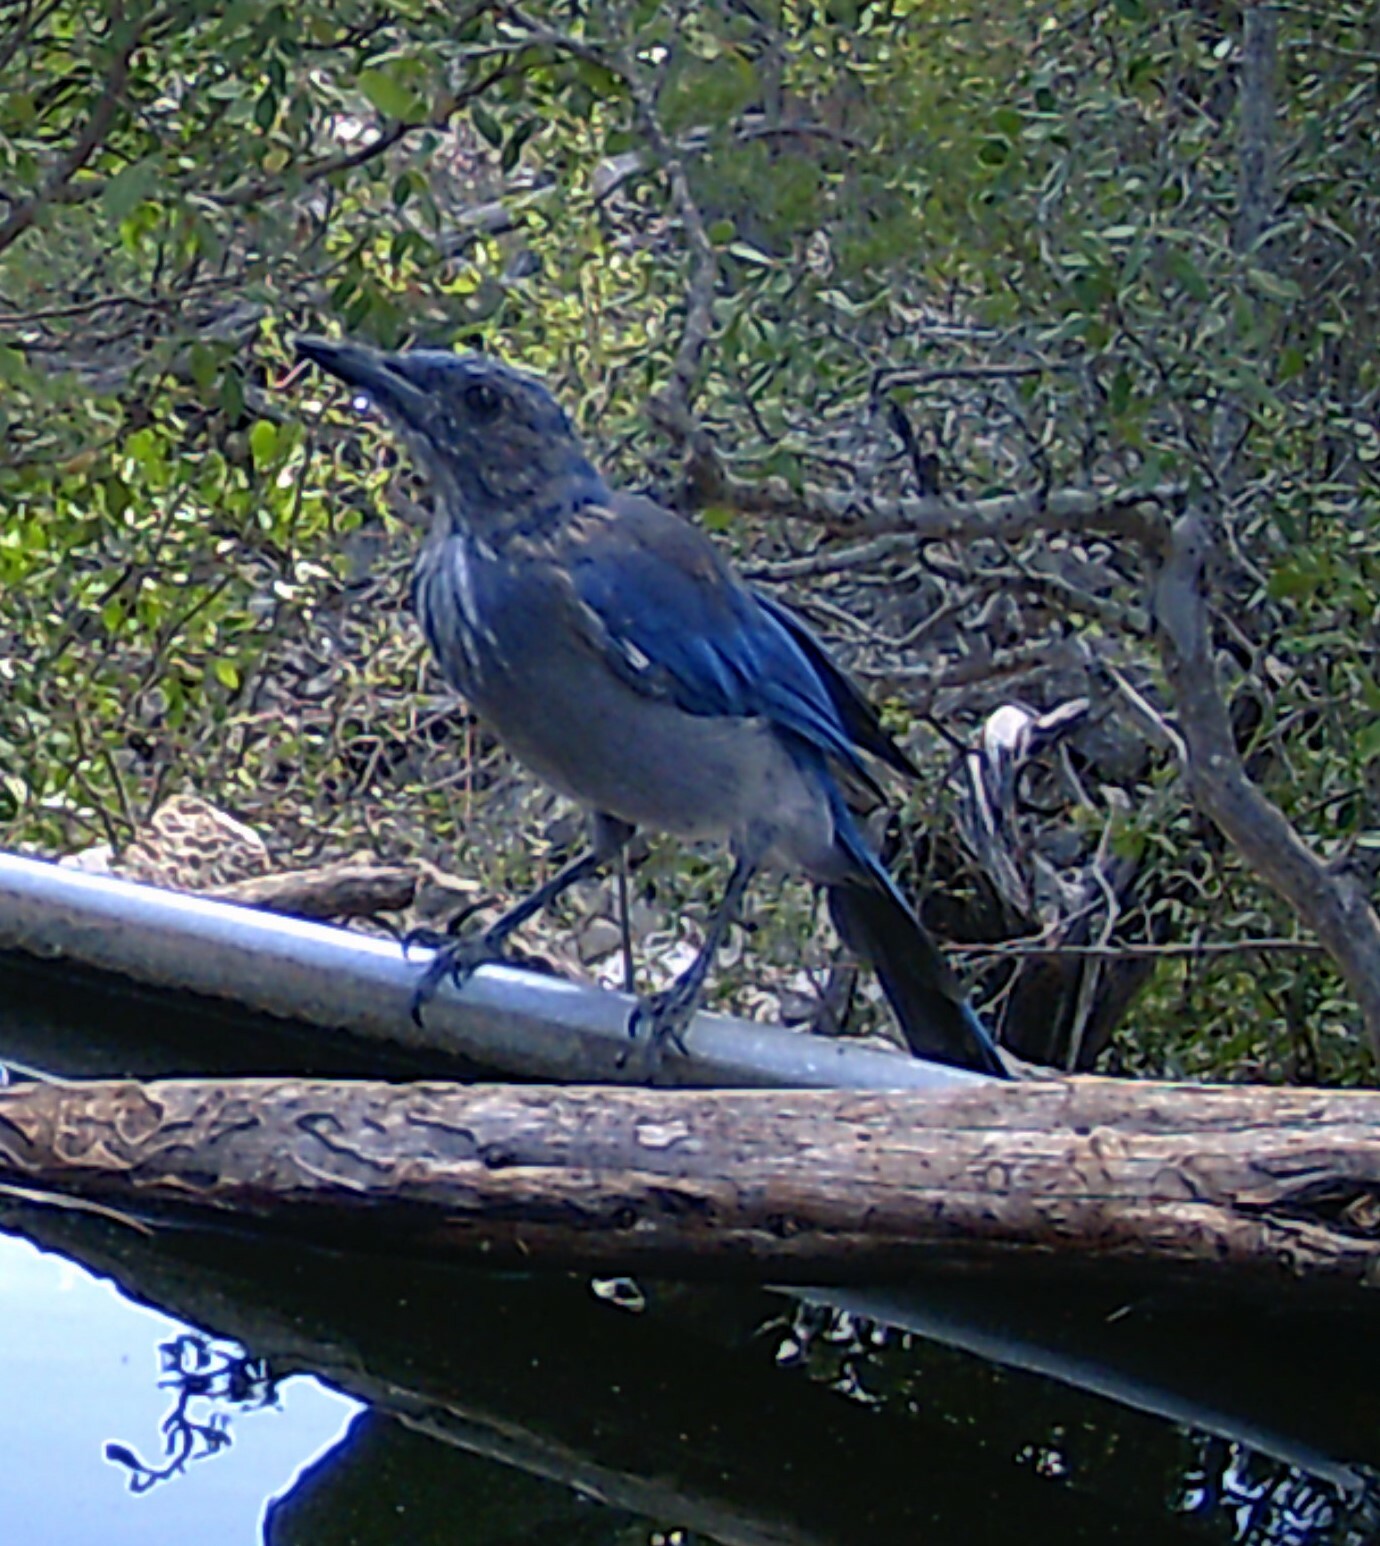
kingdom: Animalia
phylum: Chordata
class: Aves
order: Passeriformes
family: Corvidae
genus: Aphelocoma
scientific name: Aphelocoma woodhouseii
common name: Woodhouse's scrub-jay
